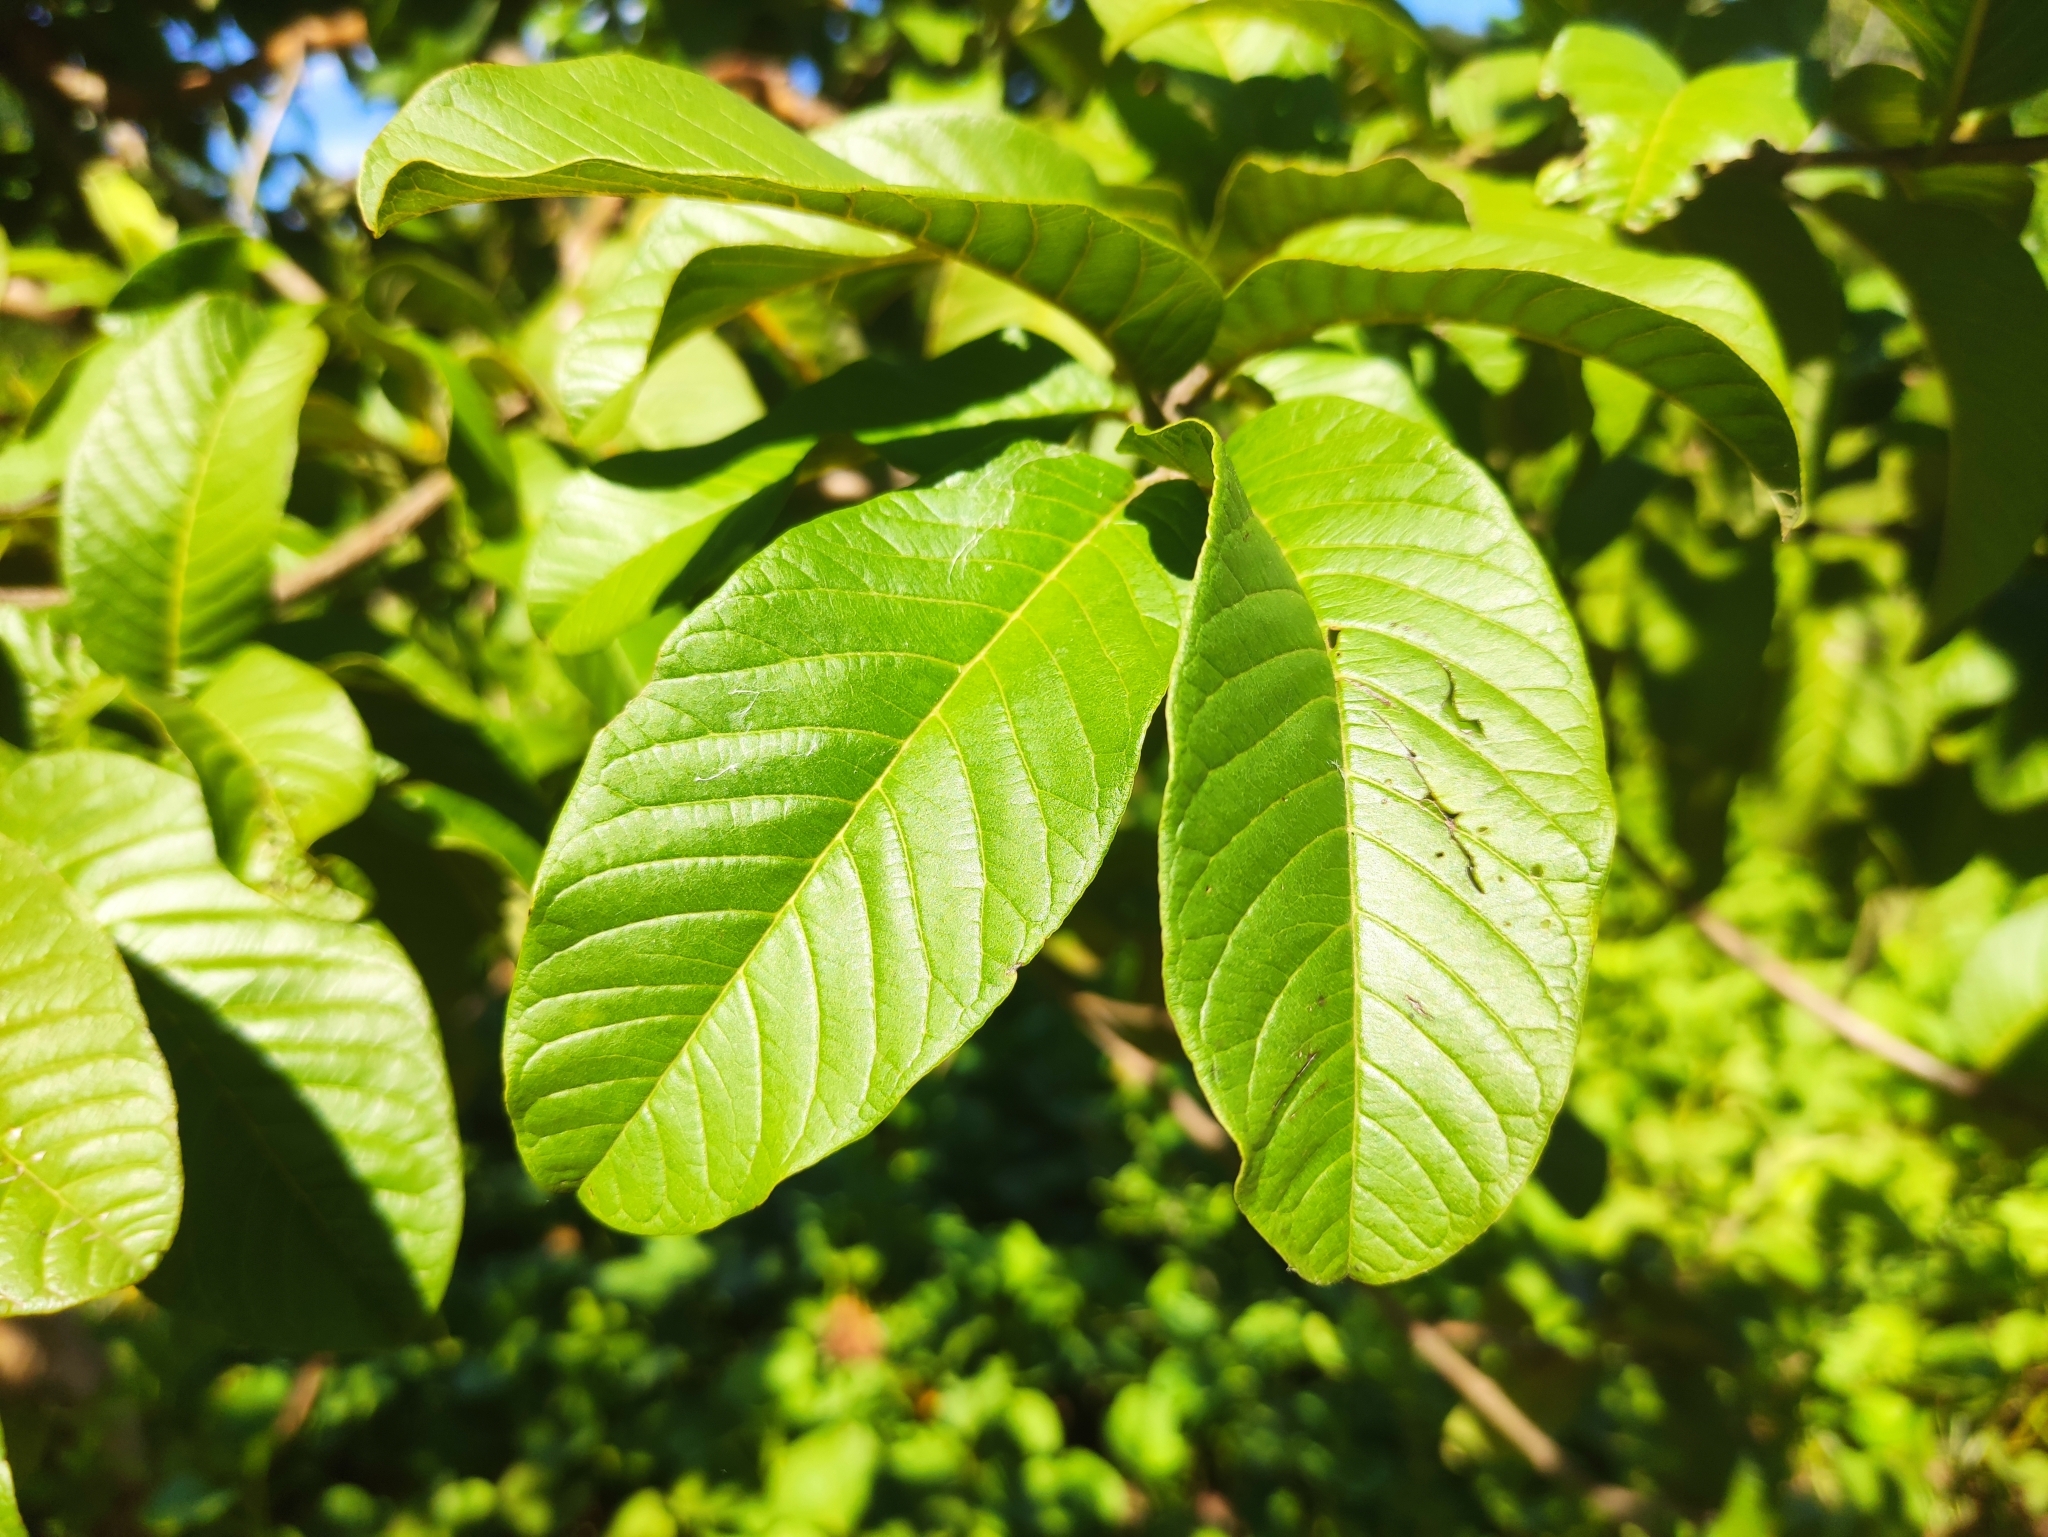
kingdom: Plantae
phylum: Tracheophyta
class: Magnoliopsida
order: Myrtales
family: Myrtaceae
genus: Psidium
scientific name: Psidium guajava
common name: Guava
